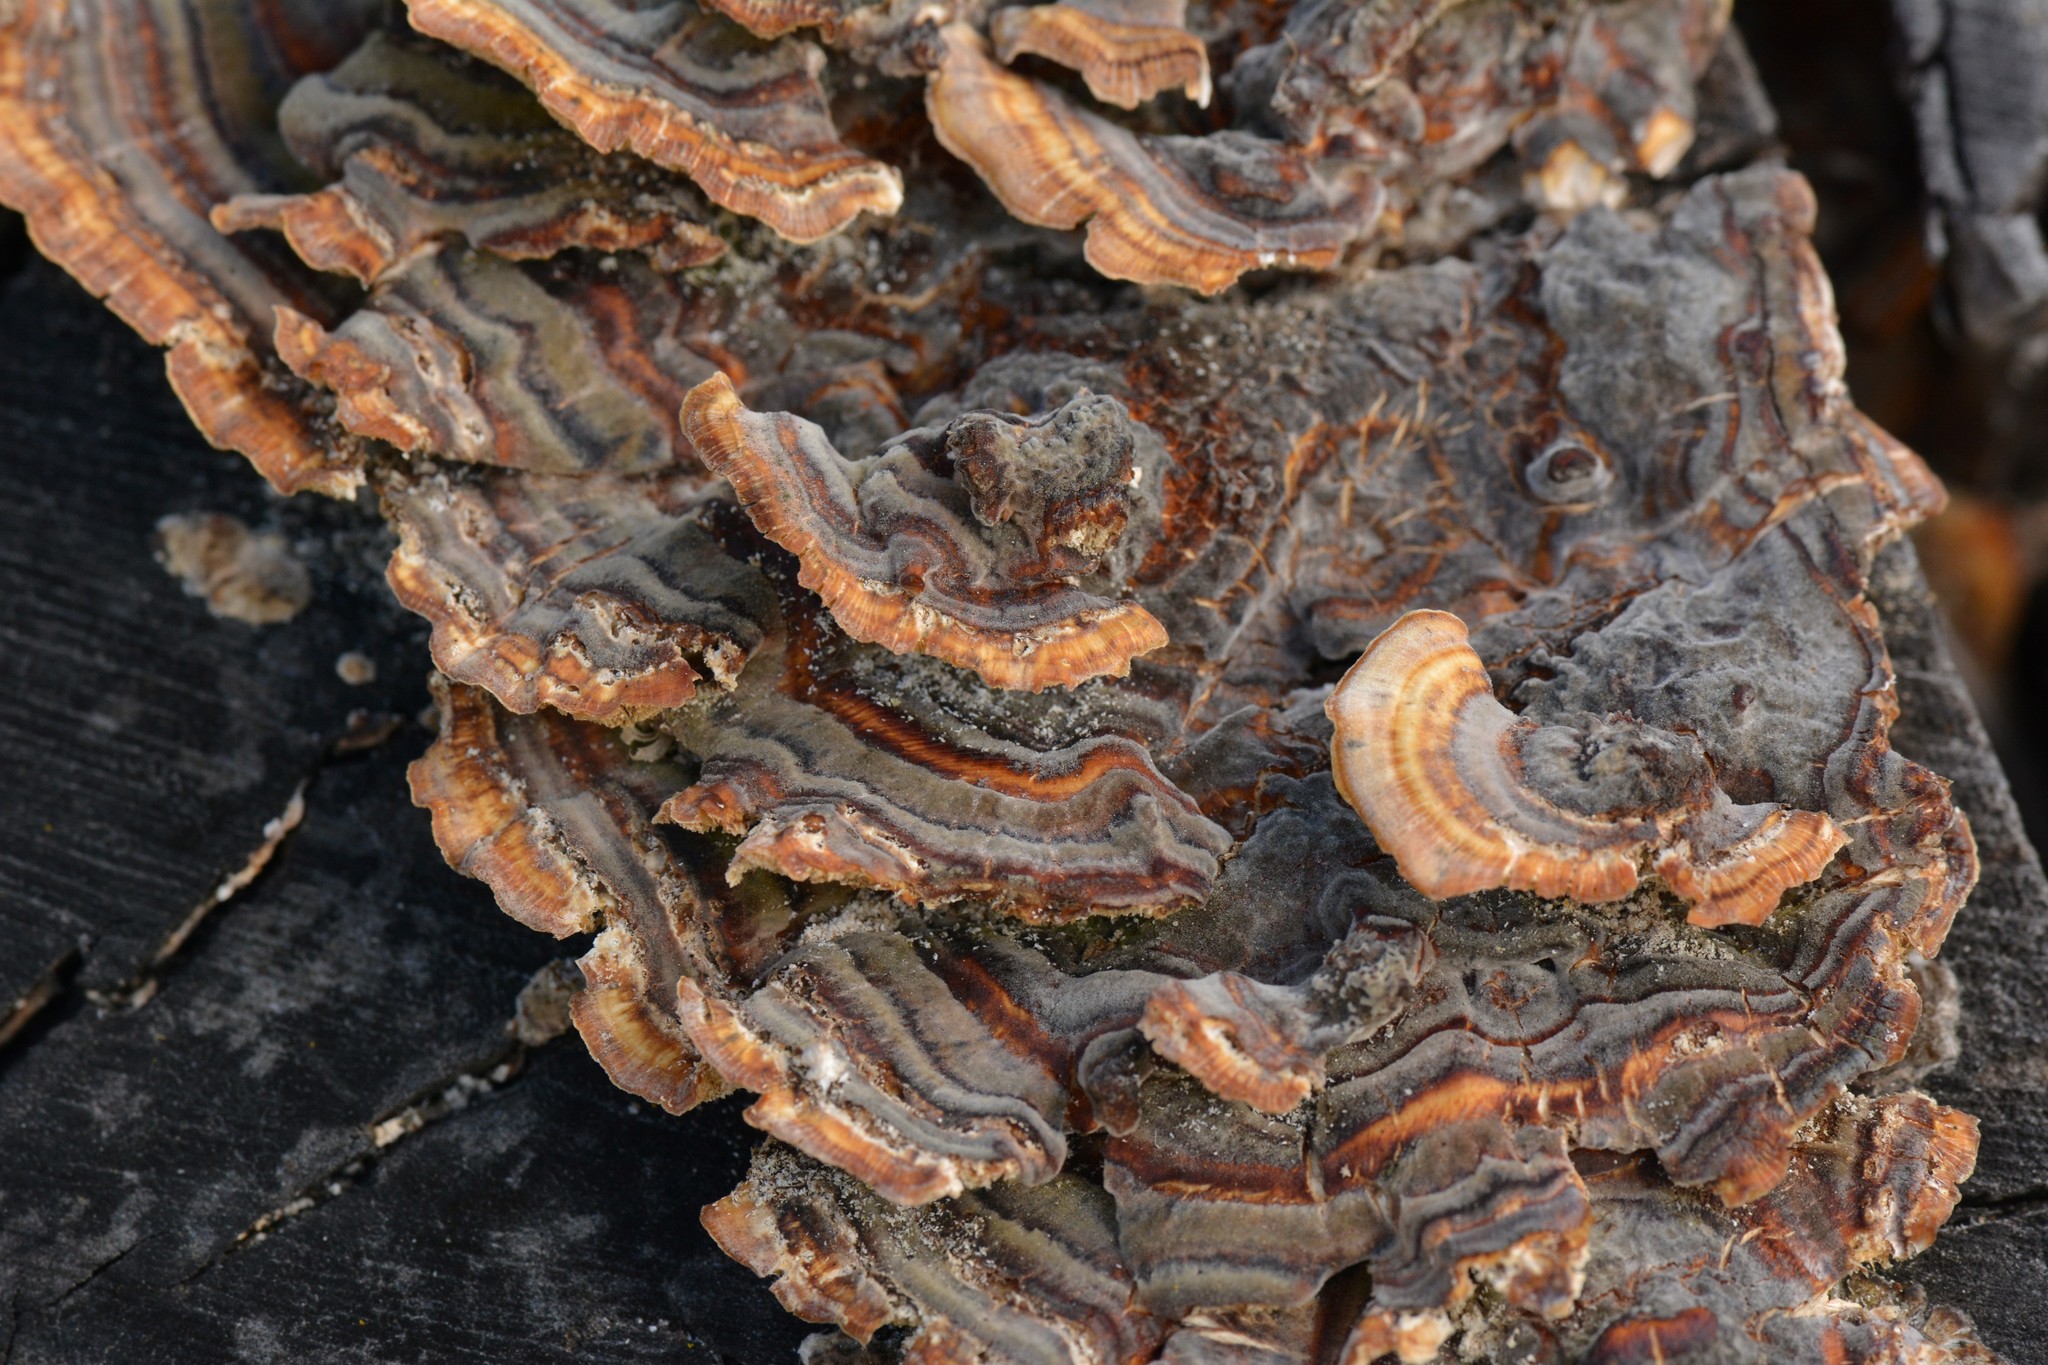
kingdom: Fungi
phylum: Basidiomycota
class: Agaricomycetes
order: Polyporales
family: Polyporaceae
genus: Trametes
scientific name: Trametes versicolor
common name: Turkeytail
